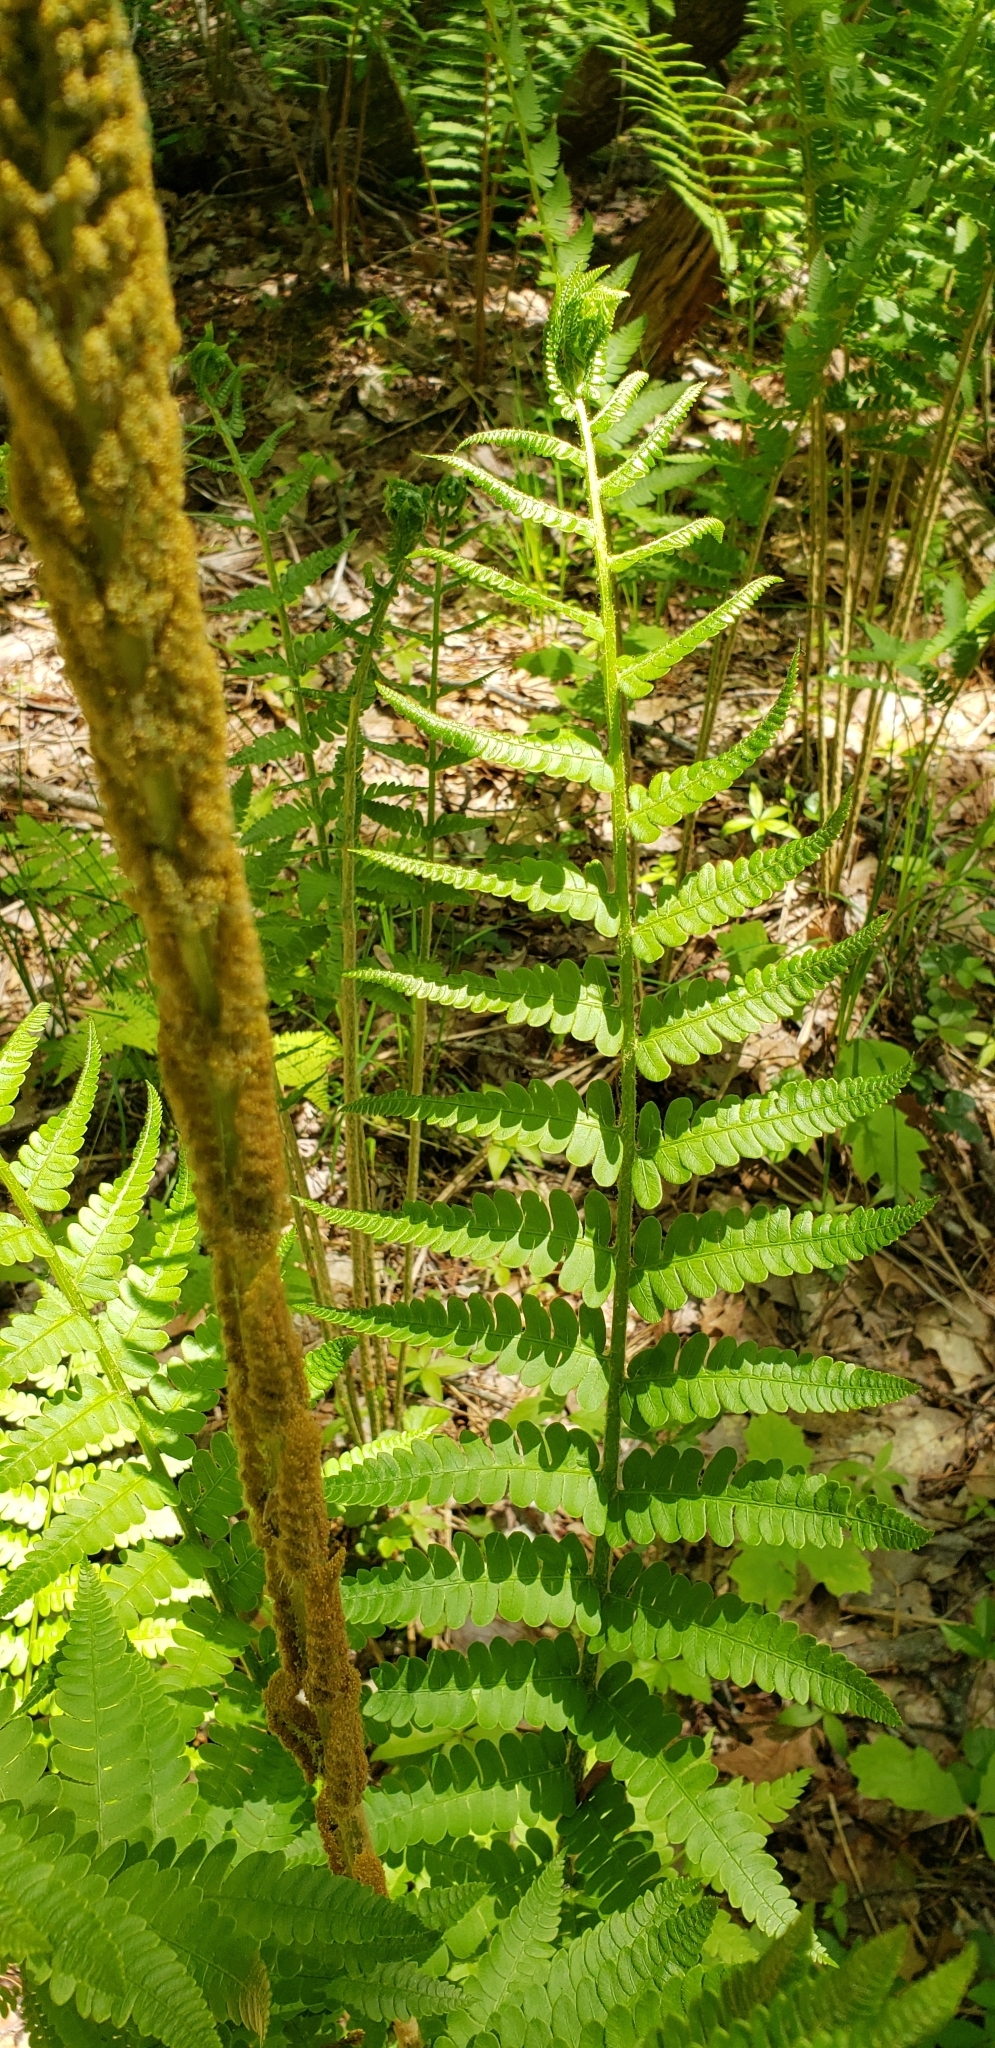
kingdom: Plantae
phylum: Tracheophyta
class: Polypodiopsida
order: Osmundales
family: Osmundaceae
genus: Osmundastrum
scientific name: Osmundastrum cinnamomeum
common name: Cinnamon fern
